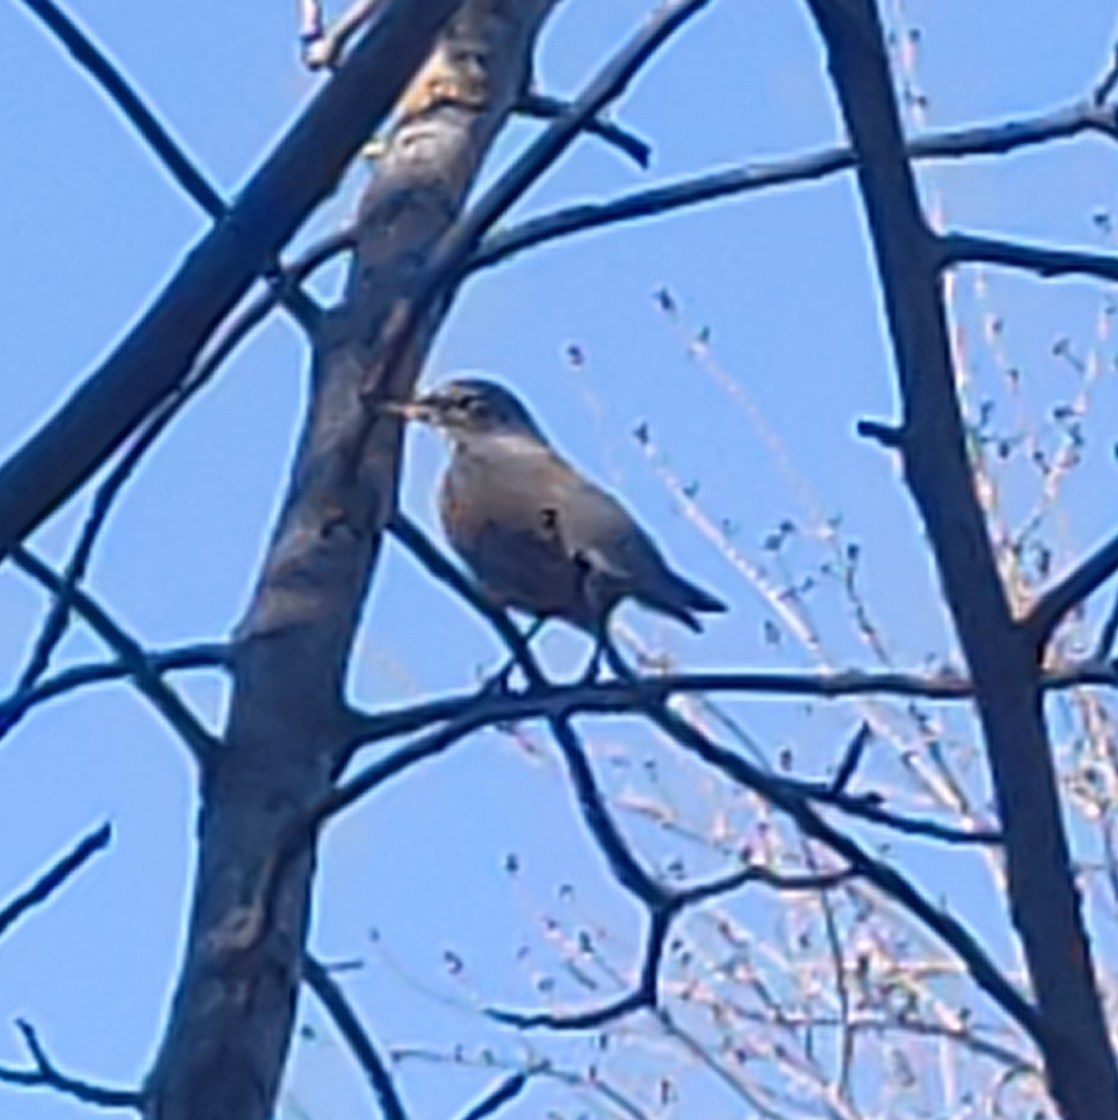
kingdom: Animalia
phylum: Chordata
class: Aves
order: Passeriformes
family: Turdidae
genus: Turdus
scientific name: Turdus migratorius
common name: American robin
